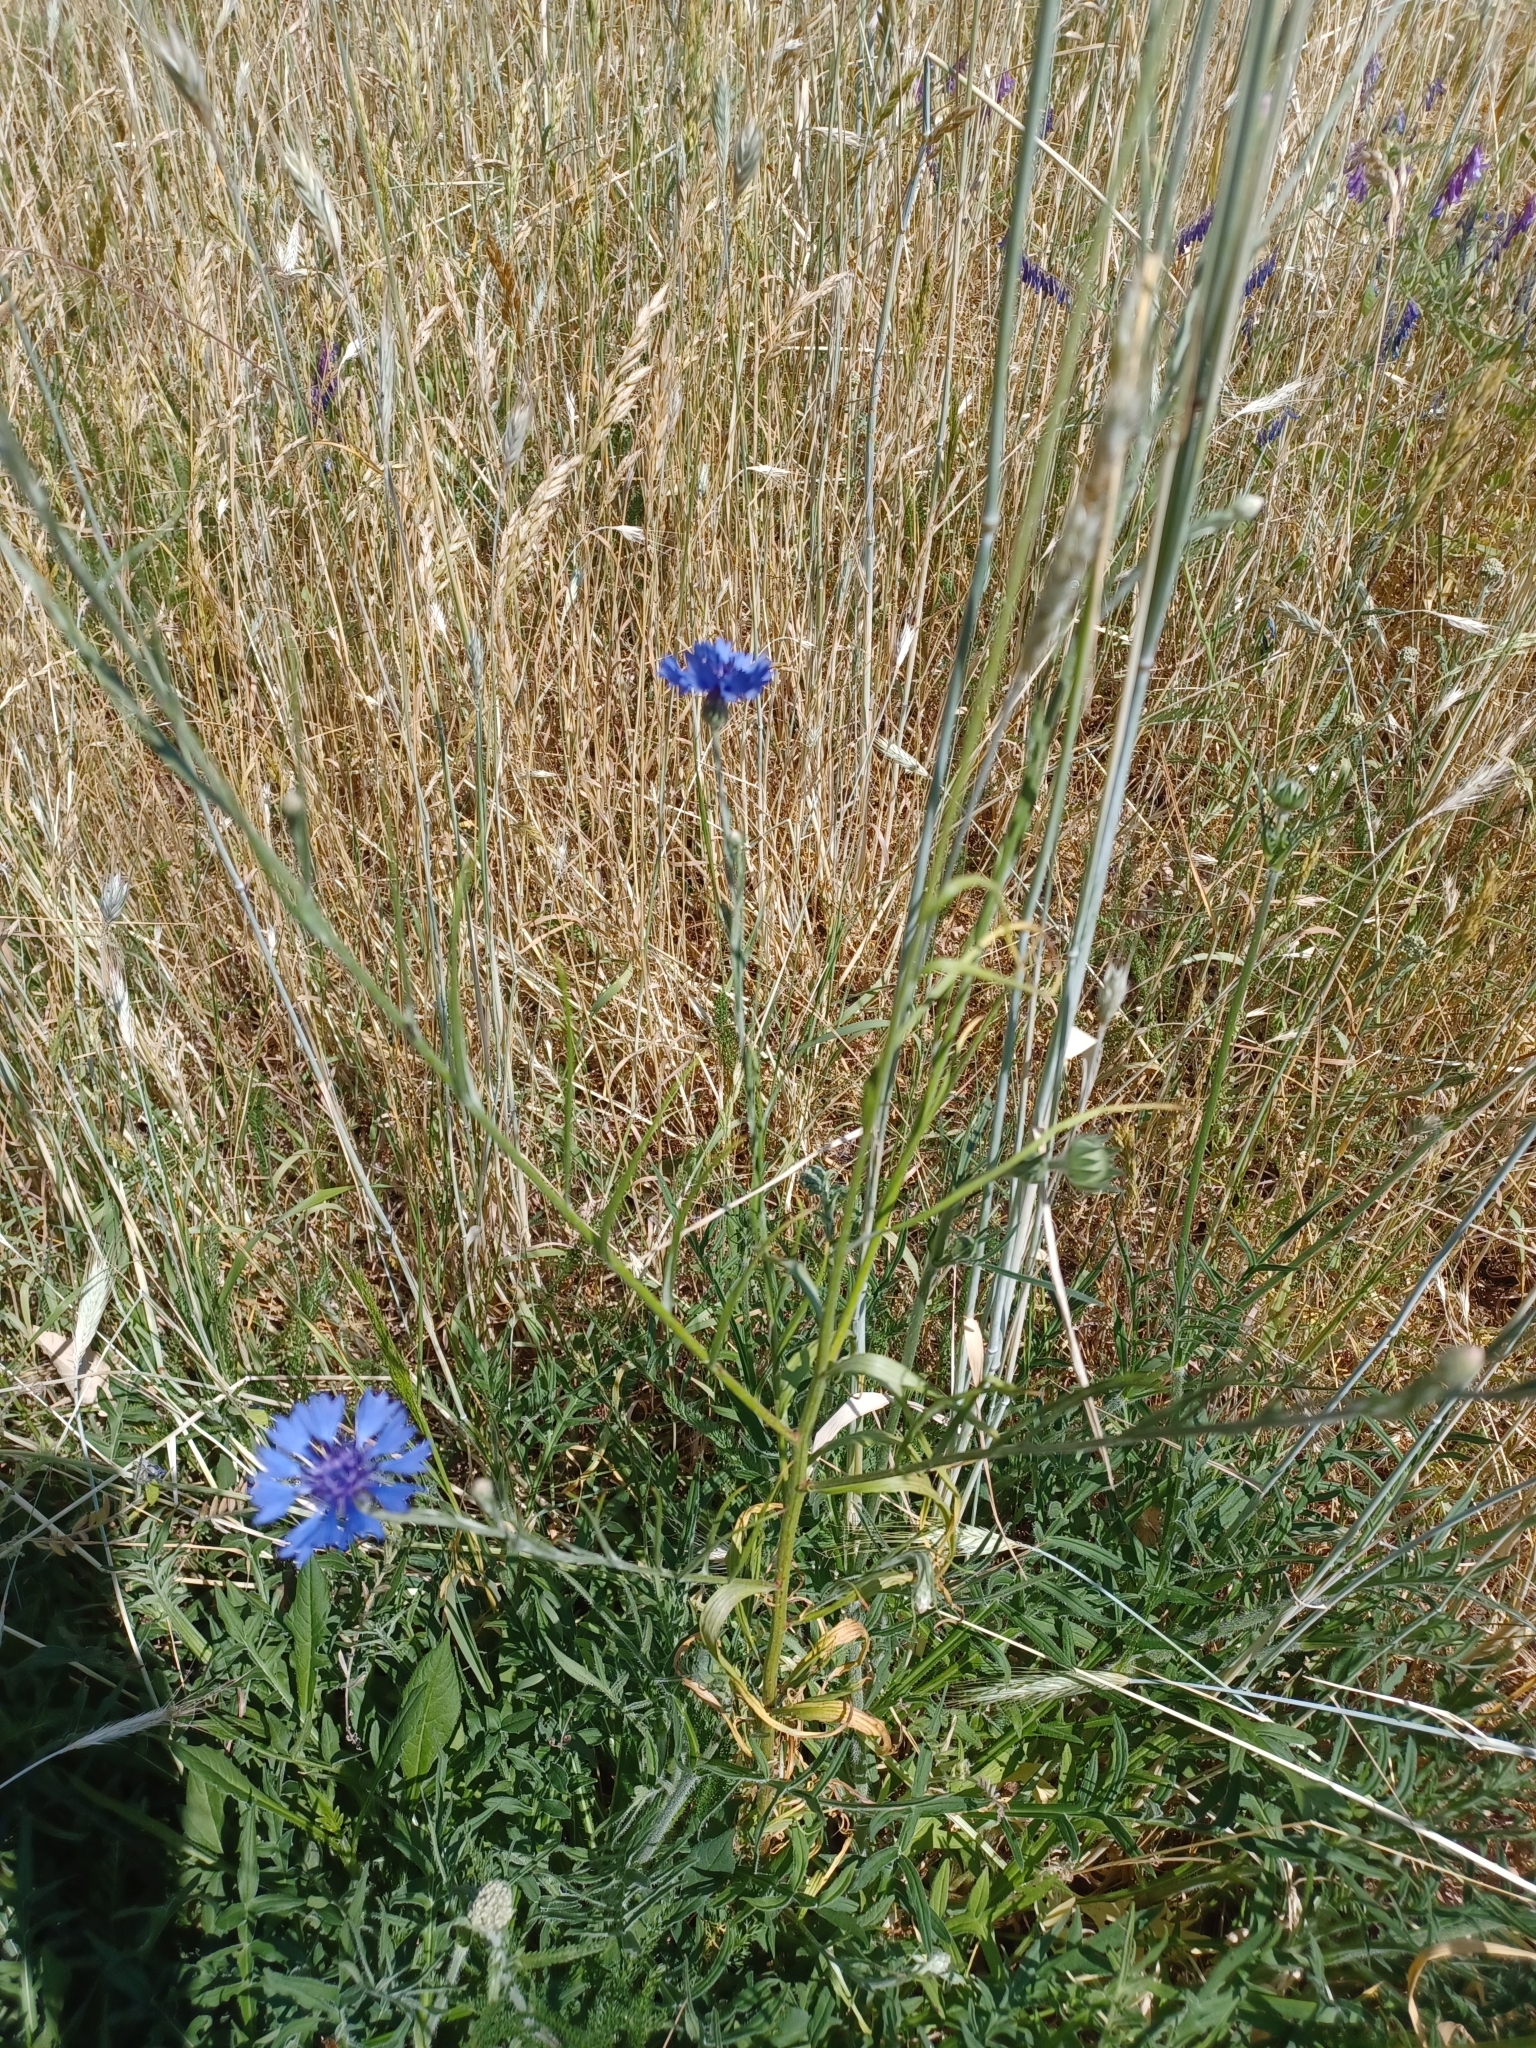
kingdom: Plantae
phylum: Tracheophyta
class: Magnoliopsida
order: Asterales
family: Asteraceae
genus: Centaurea
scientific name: Centaurea cyanus
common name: Cornflower
